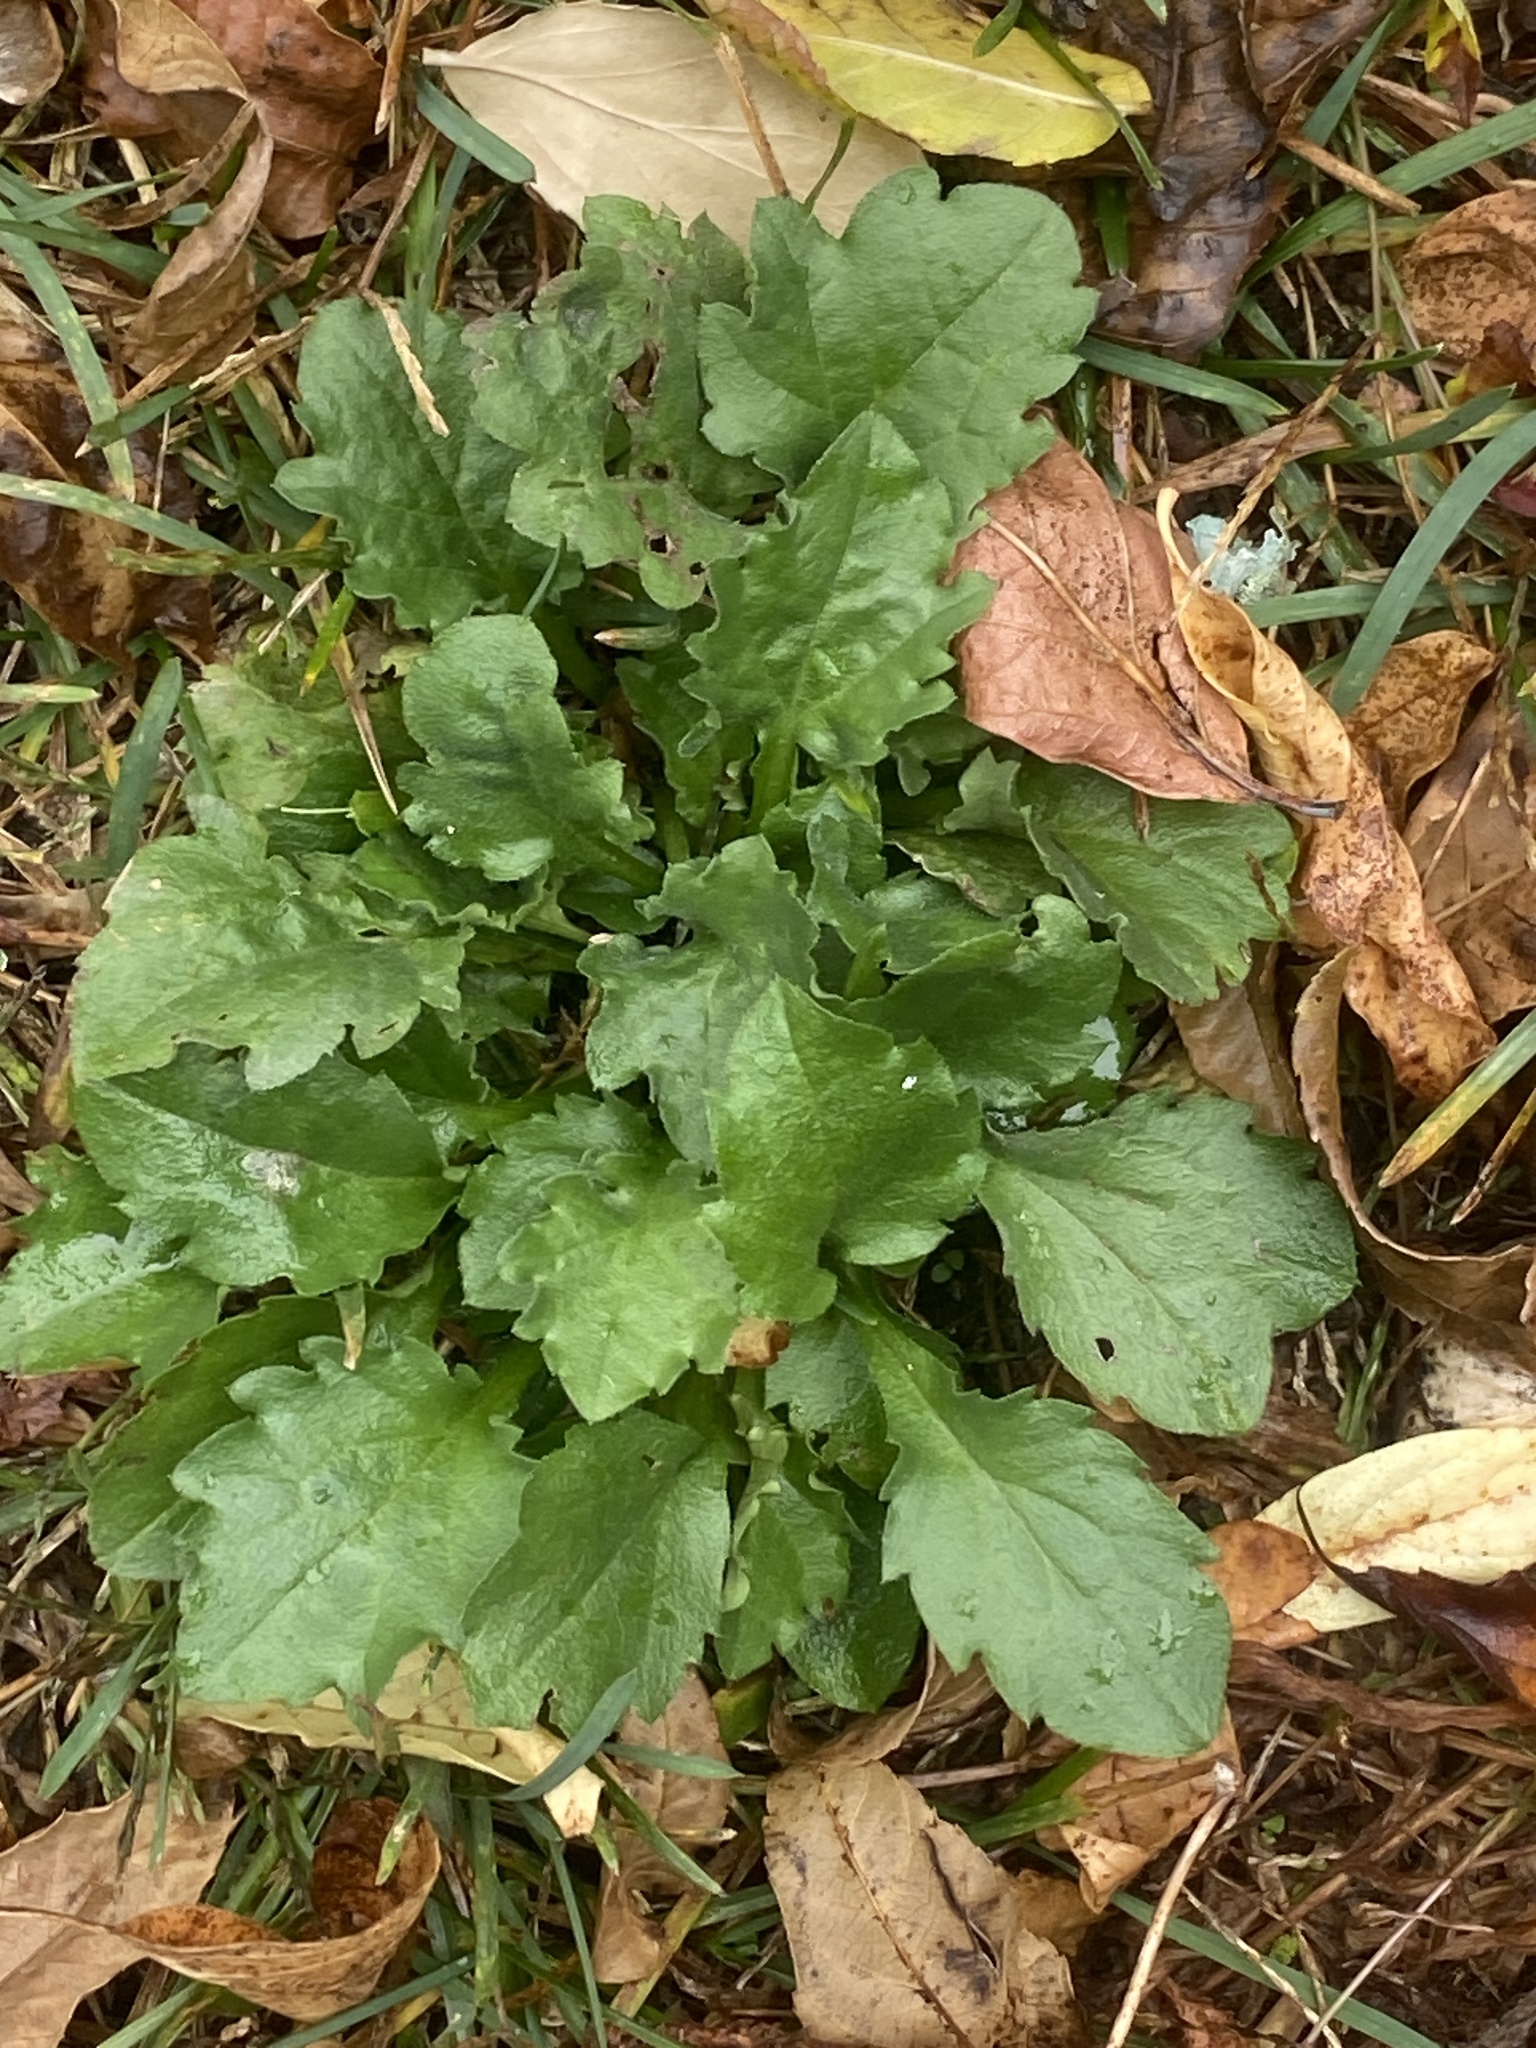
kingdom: Plantae
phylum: Tracheophyta
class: Magnoliopsida
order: Asterales
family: Asteraceae
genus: Erigeron
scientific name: Erigeron annuus
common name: Tall fleabane
